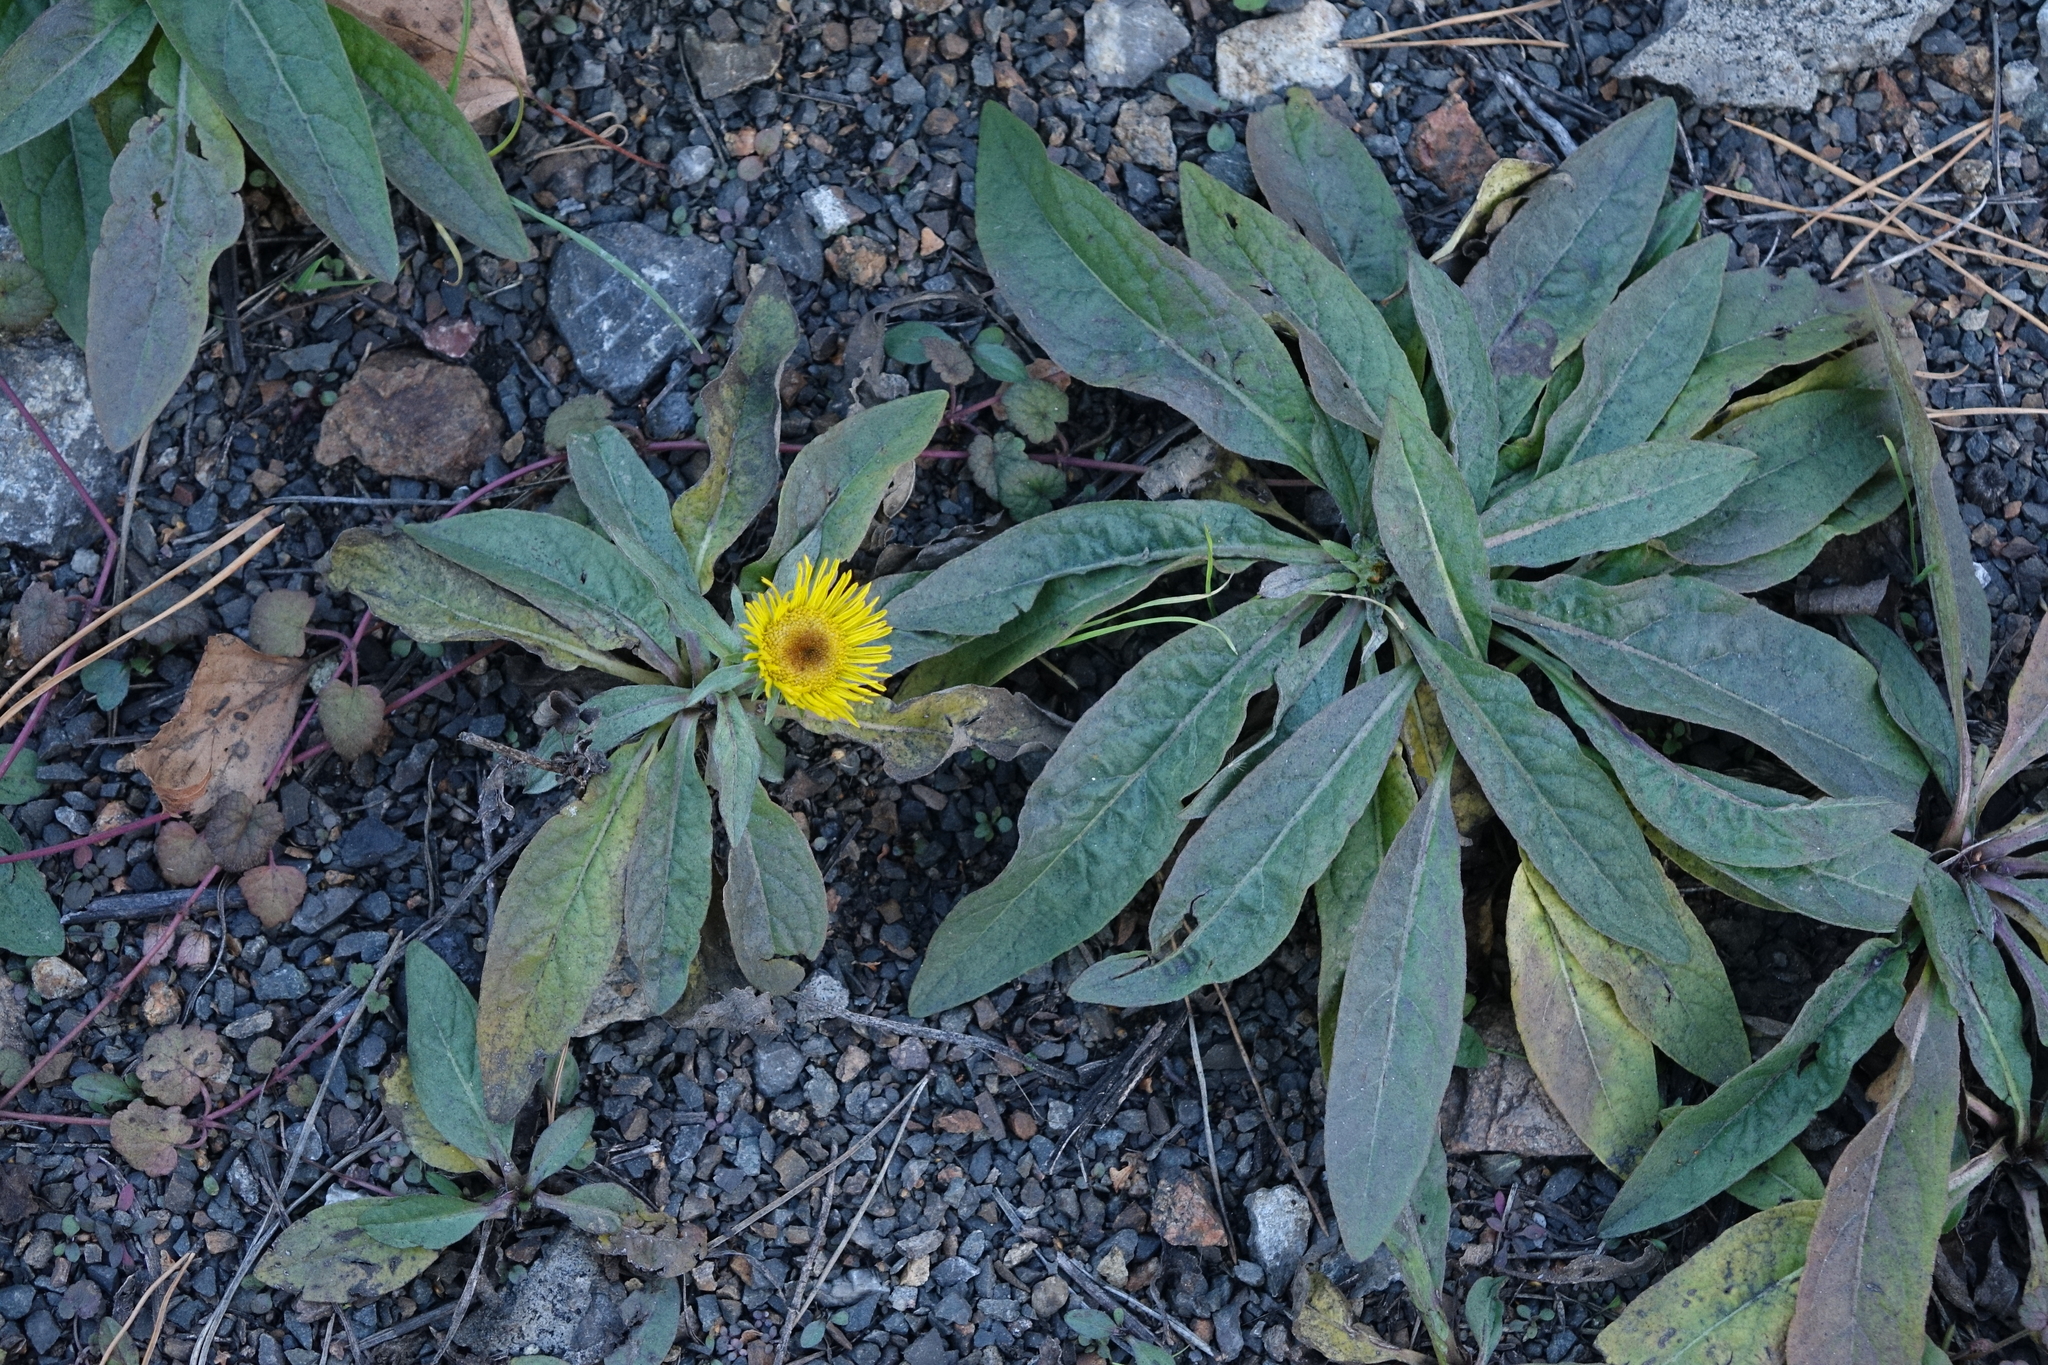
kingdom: Plantae
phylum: Tracheophyta
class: Magnoliopsida
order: Asterales
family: Asteraceae
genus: Pentanema
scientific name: Pentanema britannicum
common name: British elecampane
